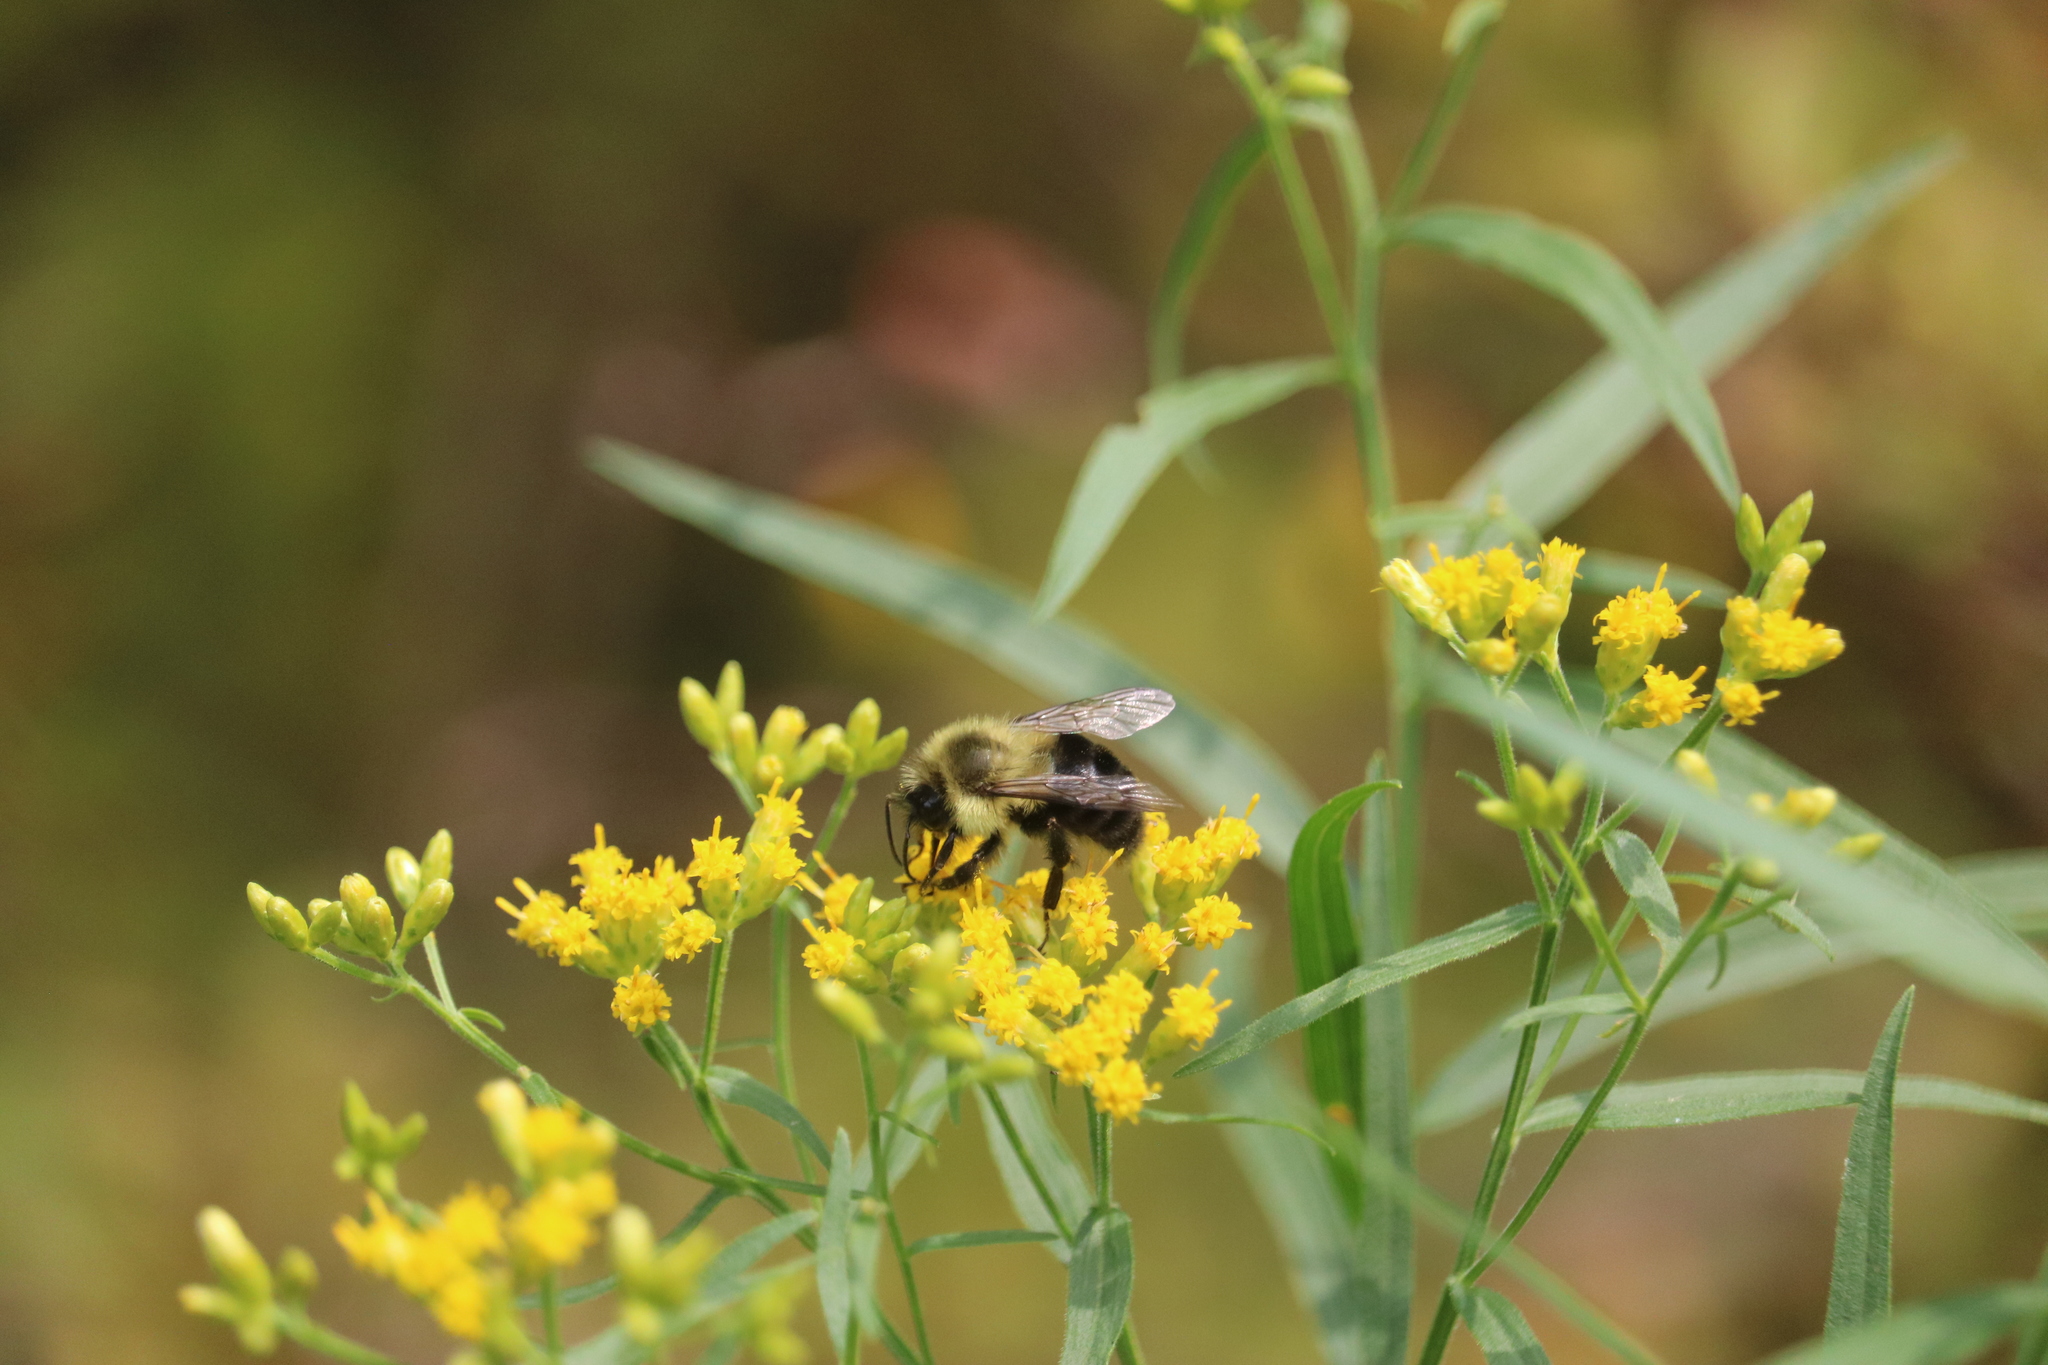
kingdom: Animalia
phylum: Arthropoda
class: Insecta
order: Hymenoptera
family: Apidae
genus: Bombus
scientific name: Bombus impatiens
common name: Common eastern bumble bee
